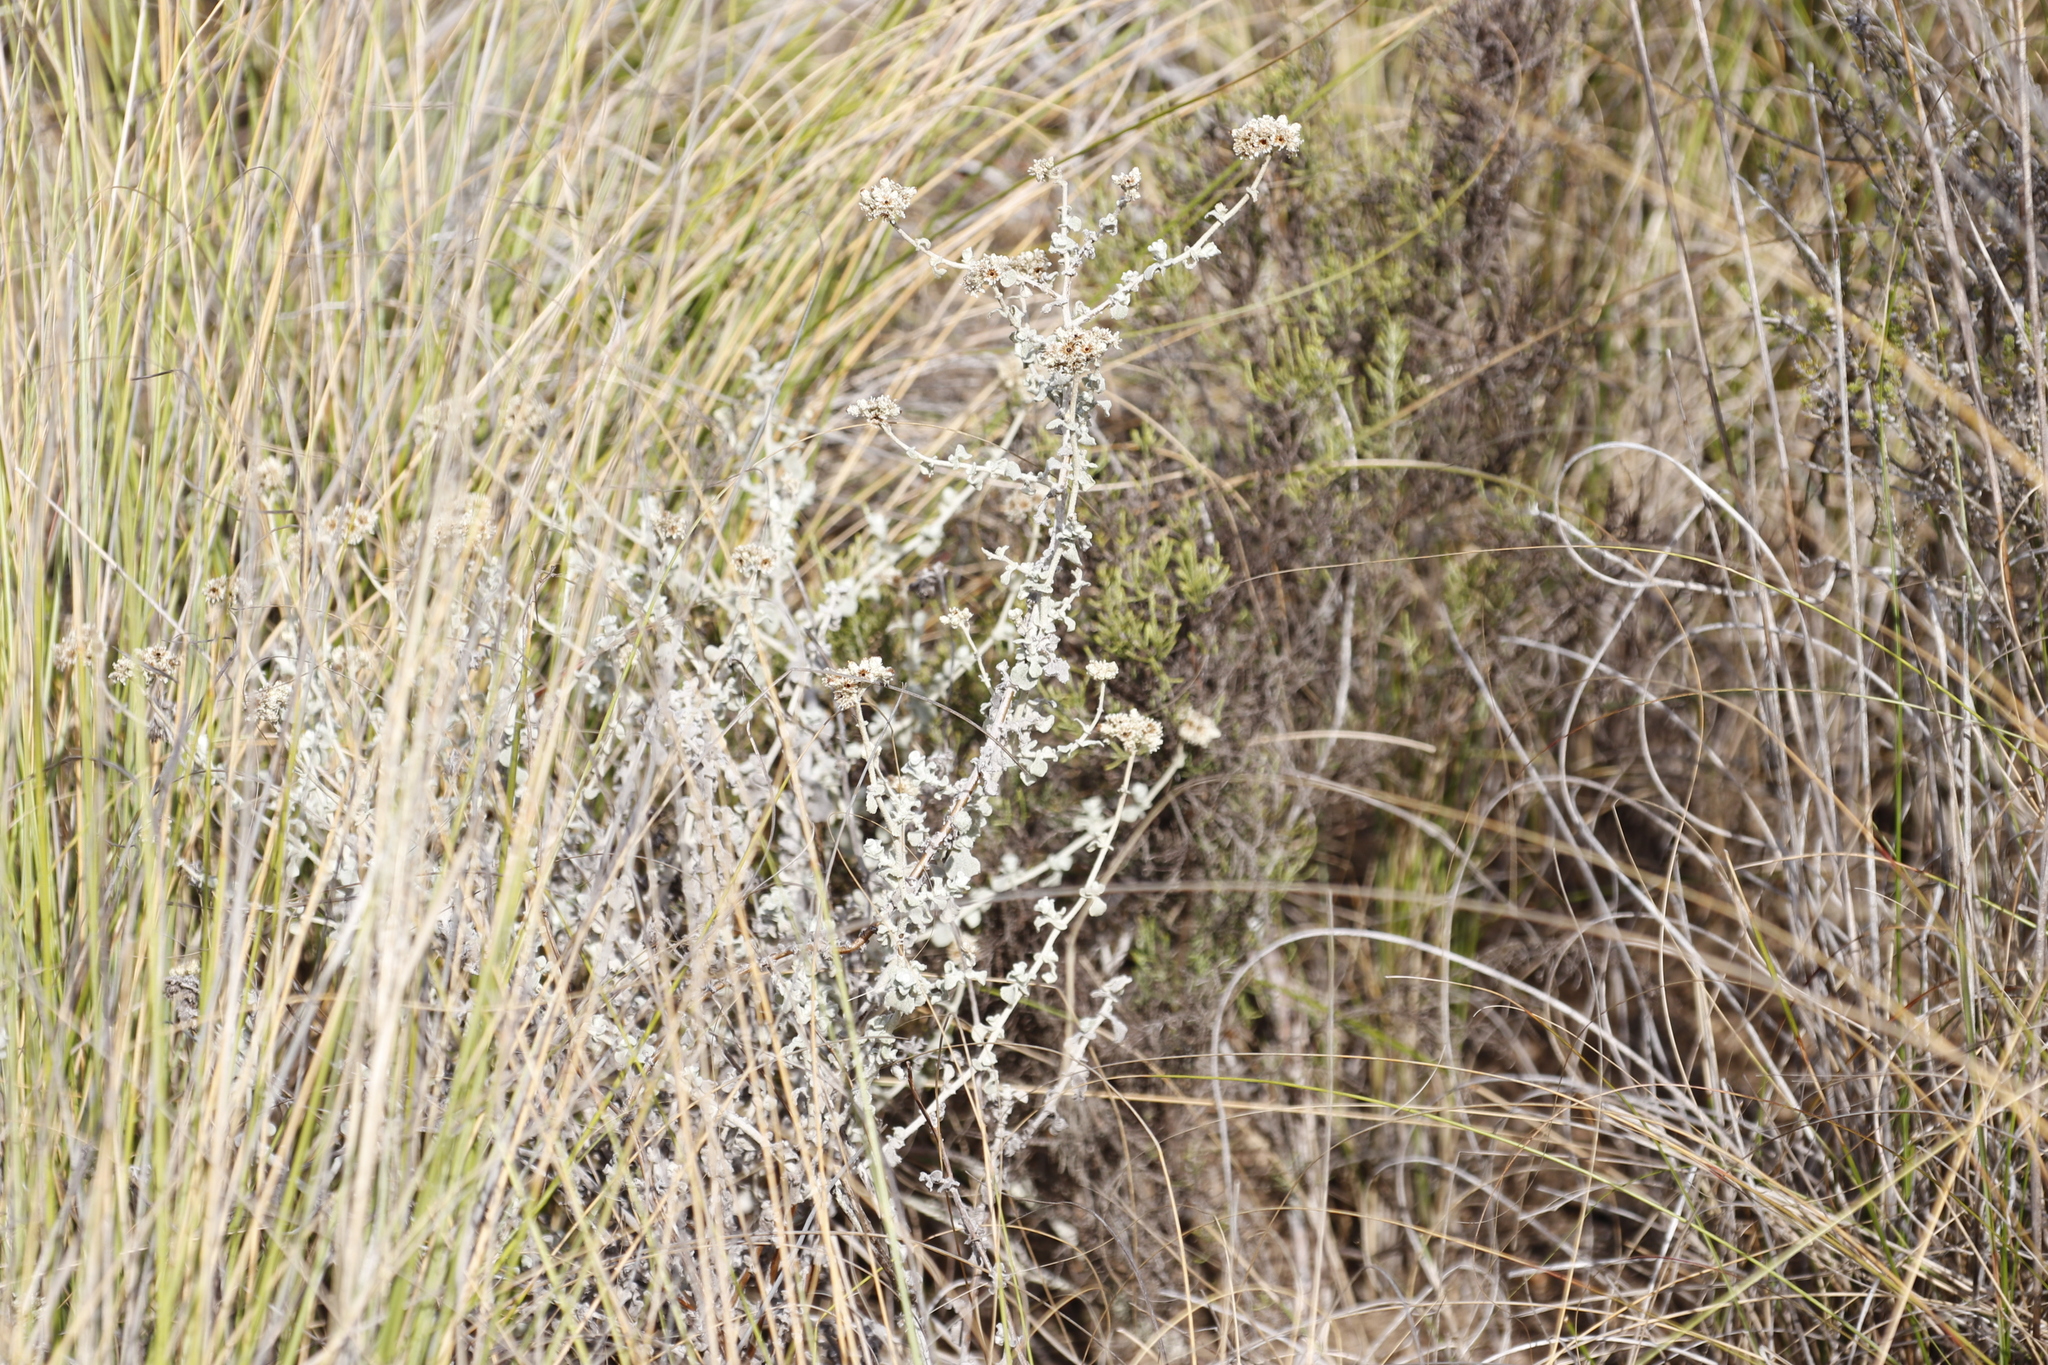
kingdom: Plantae
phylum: Tracheophyta
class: Magnoliopsida
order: Asterales
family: Asteraceae
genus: Helichrysum
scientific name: Helichrysum patulum
